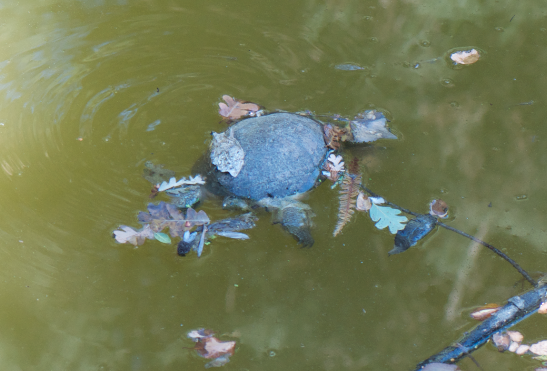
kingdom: Animalia
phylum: Chordata
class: Testudines
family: Chelydridae
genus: Chelydra
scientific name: Chelydra serpentina
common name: Common snapping turtle
